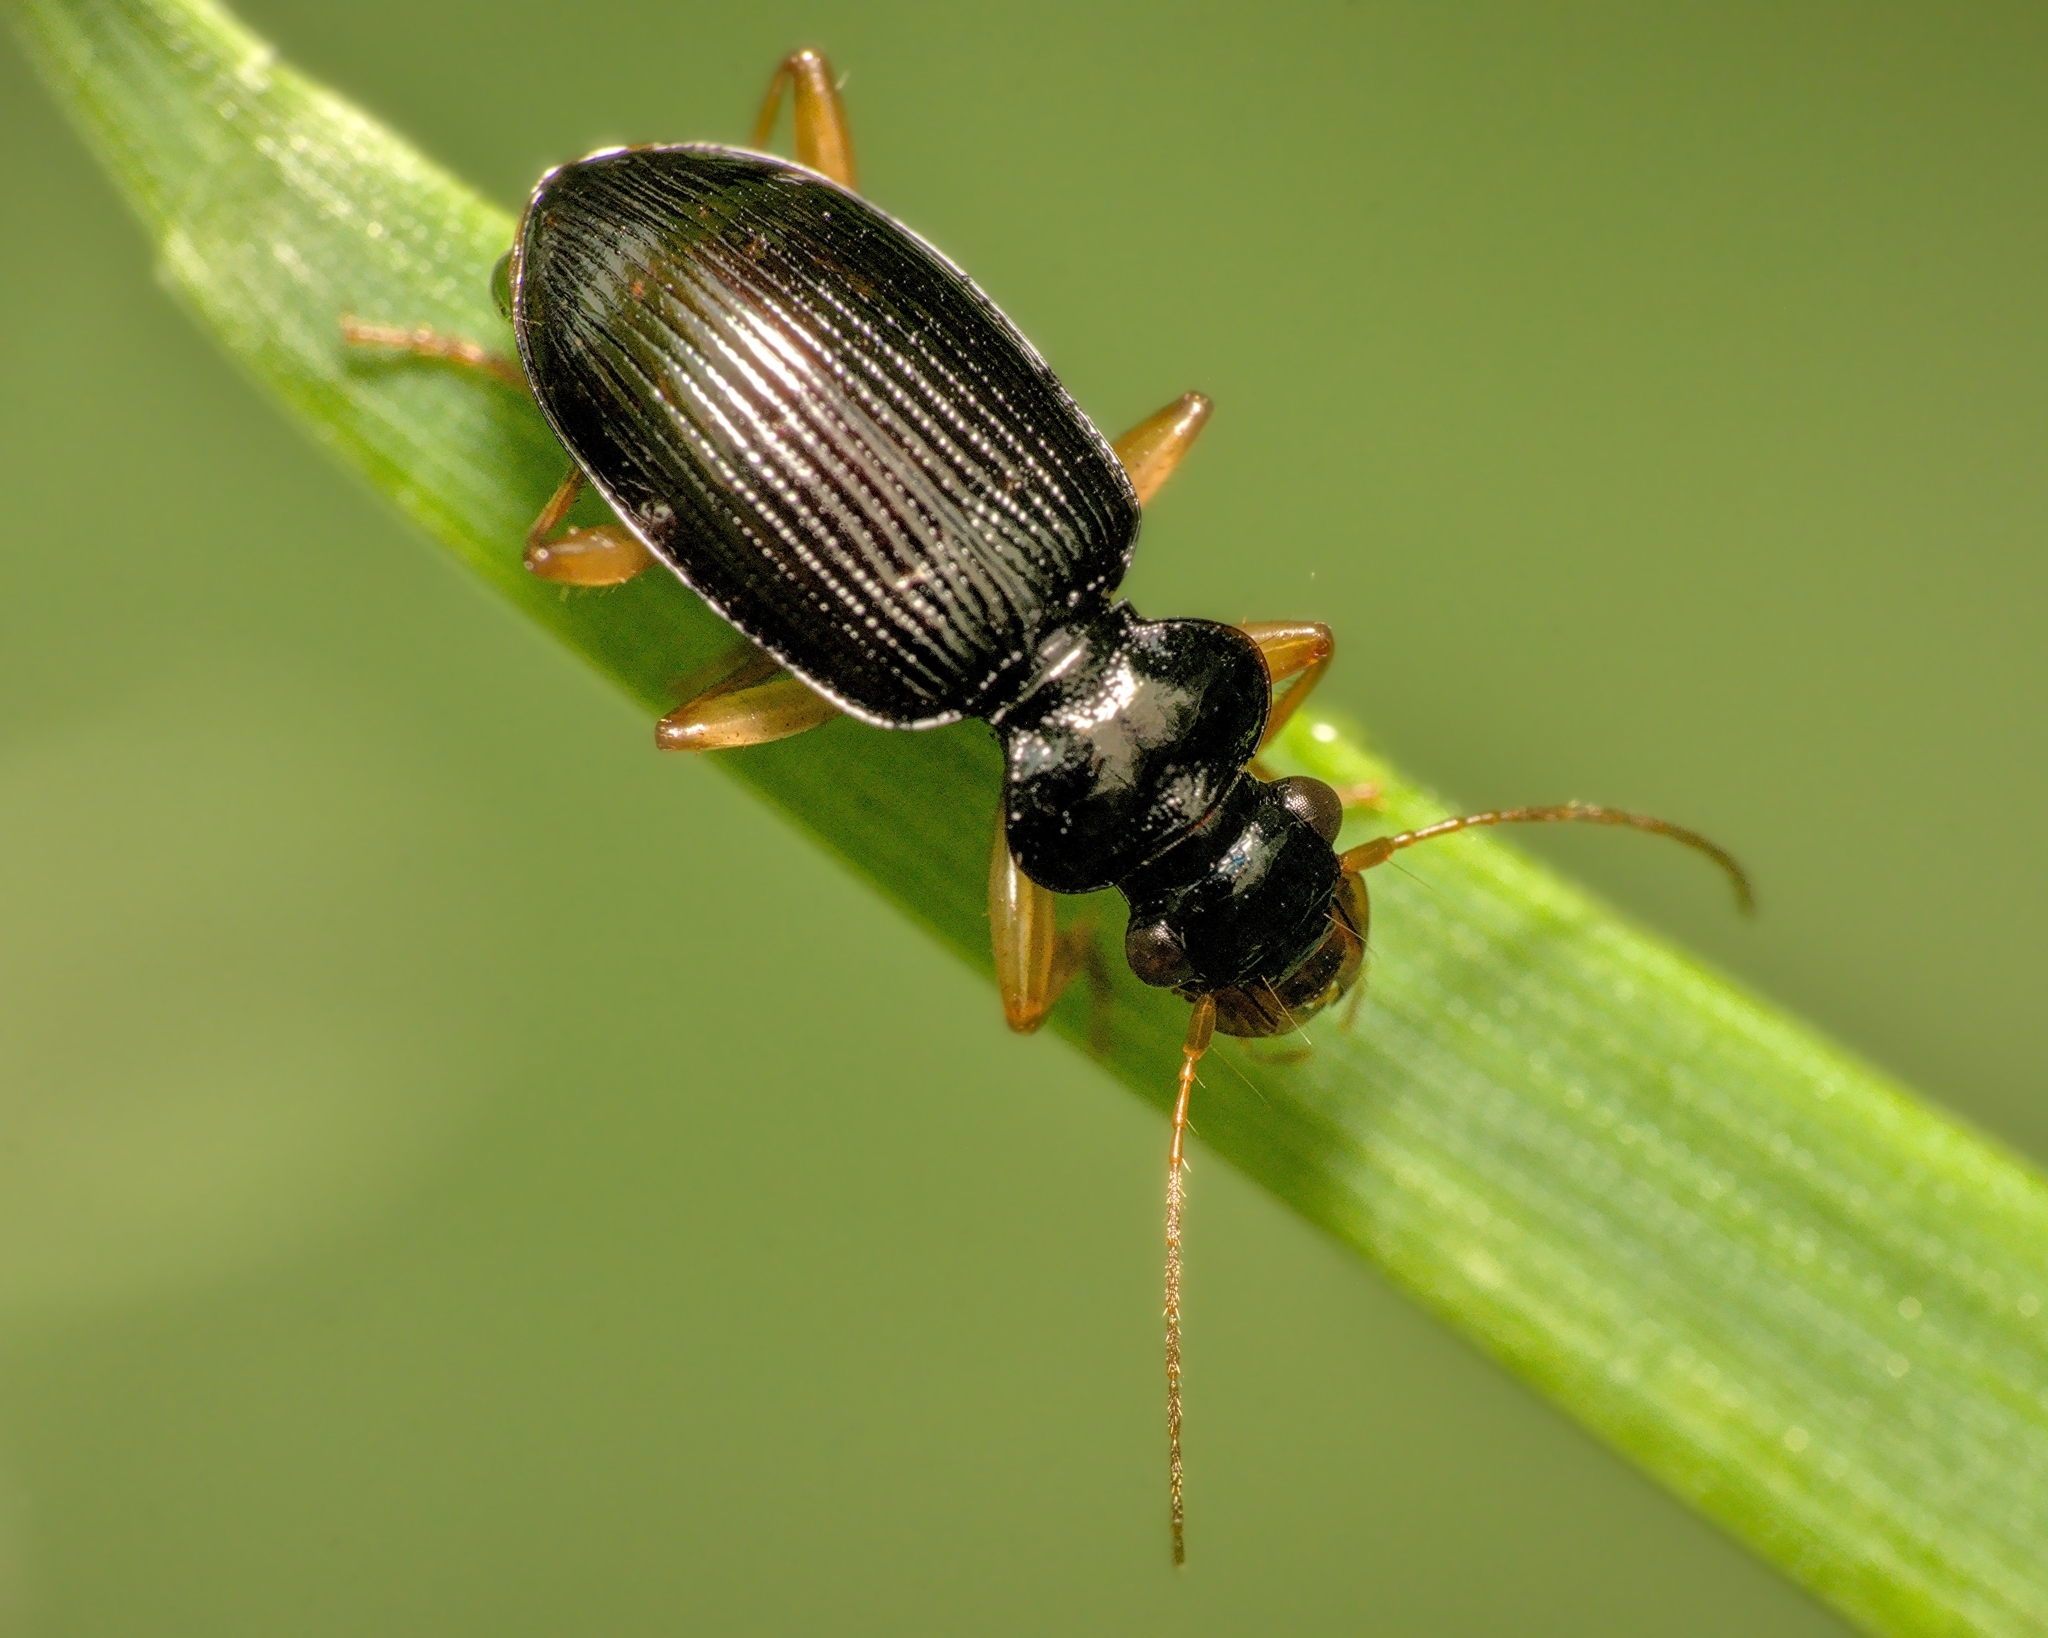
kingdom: Animalia
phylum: Arthropoda
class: Insecta
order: Coleoptera
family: Carabidae
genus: Leistus
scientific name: Leistus fulvibarbis
